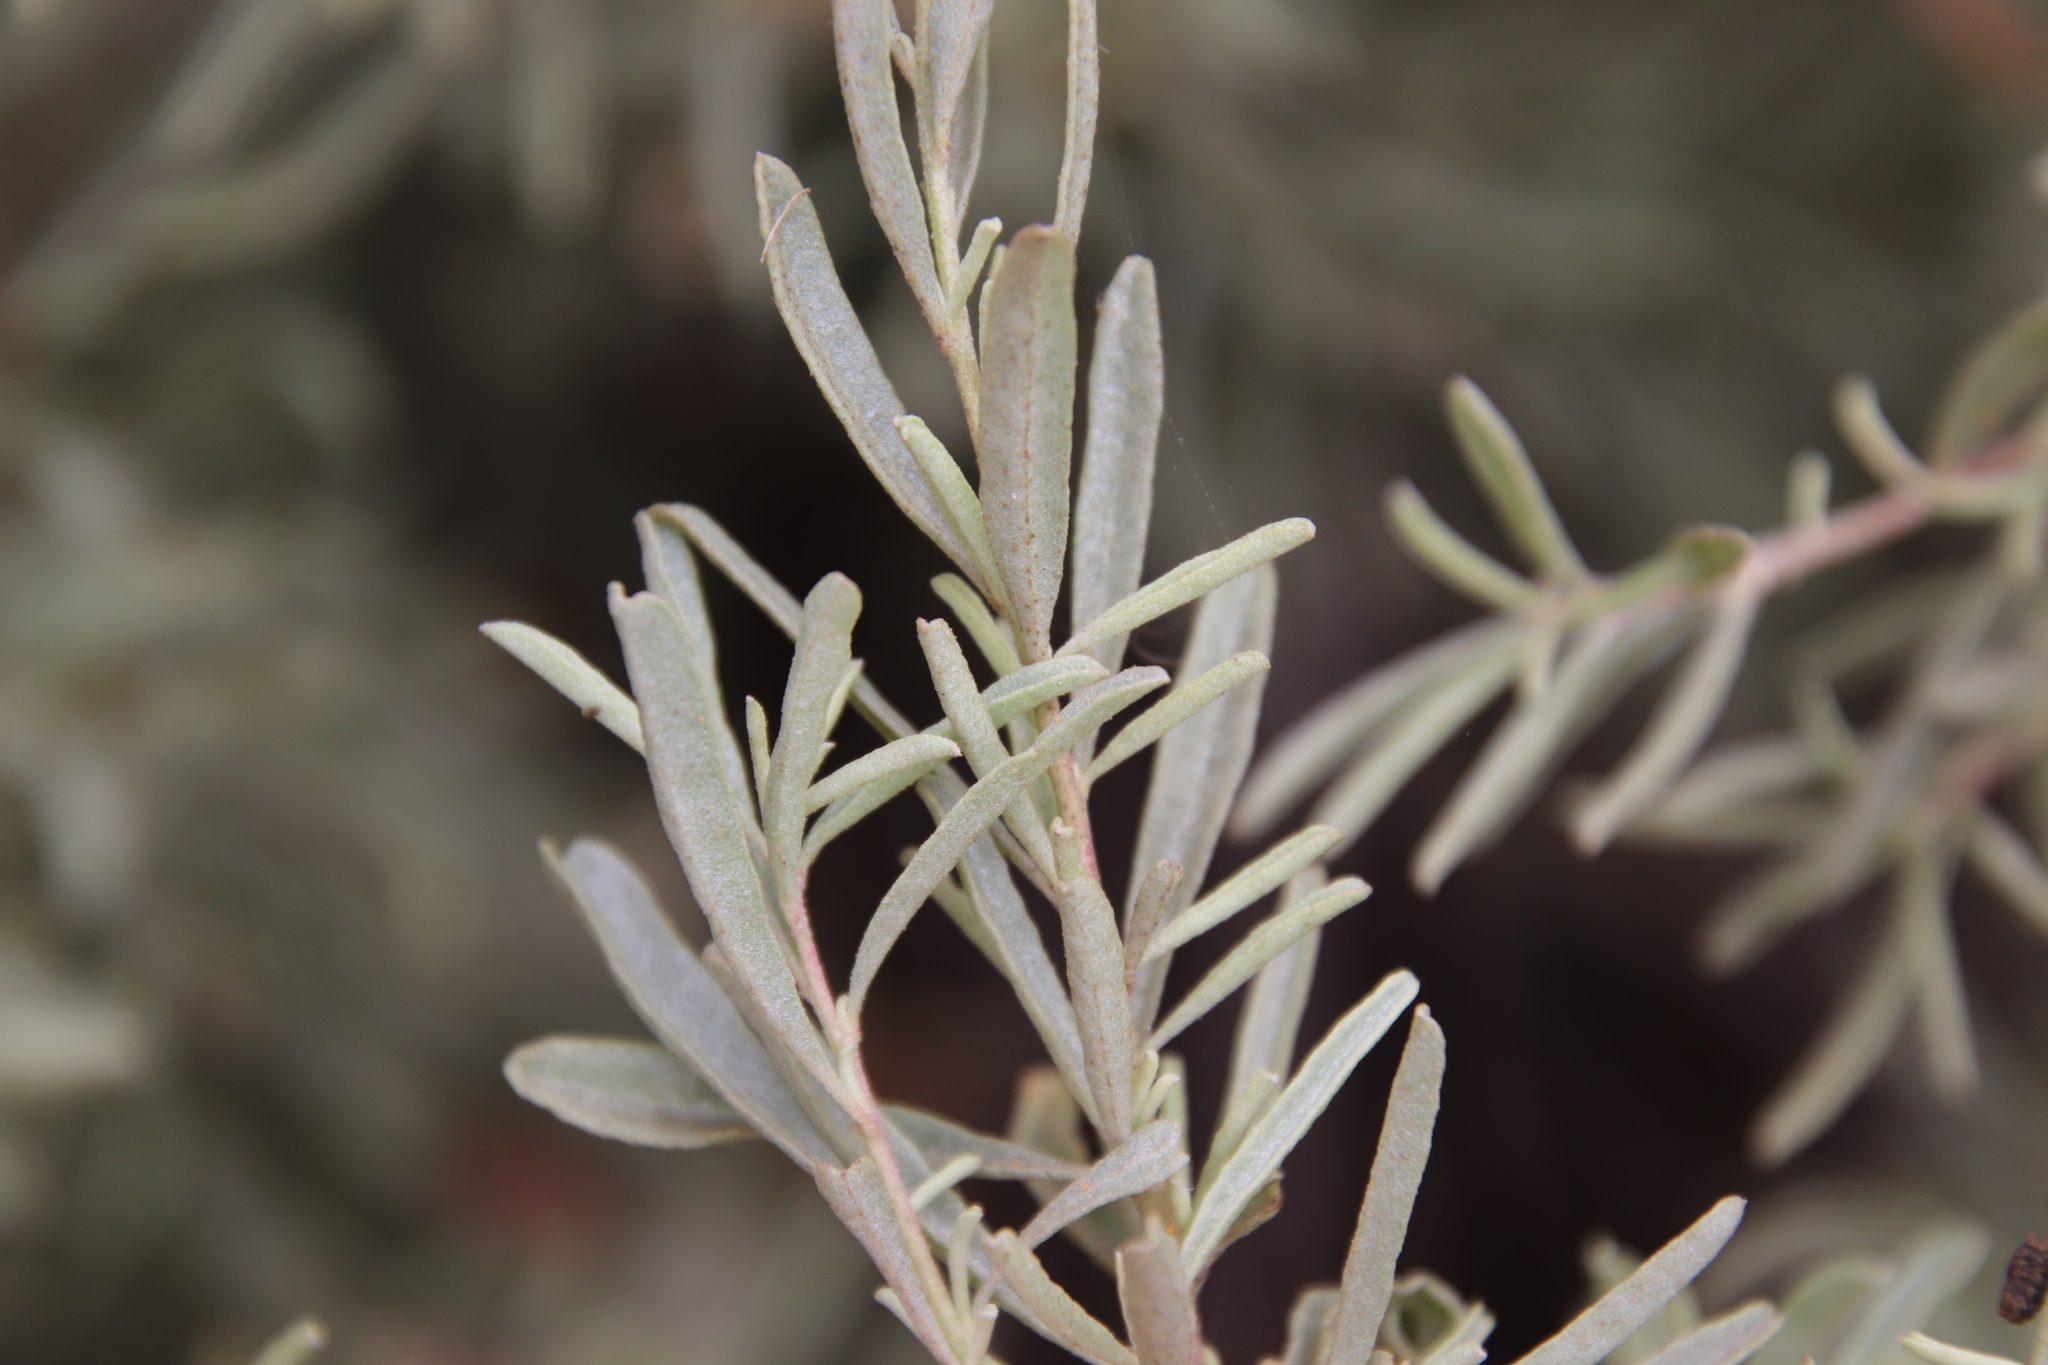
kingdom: Plantae
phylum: Tracheophyta
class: Magnoliopsida
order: Caryophyllales
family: Amaranthaceae
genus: Atriplex
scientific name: Atriplex canescens
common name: Four-wing saltbush
